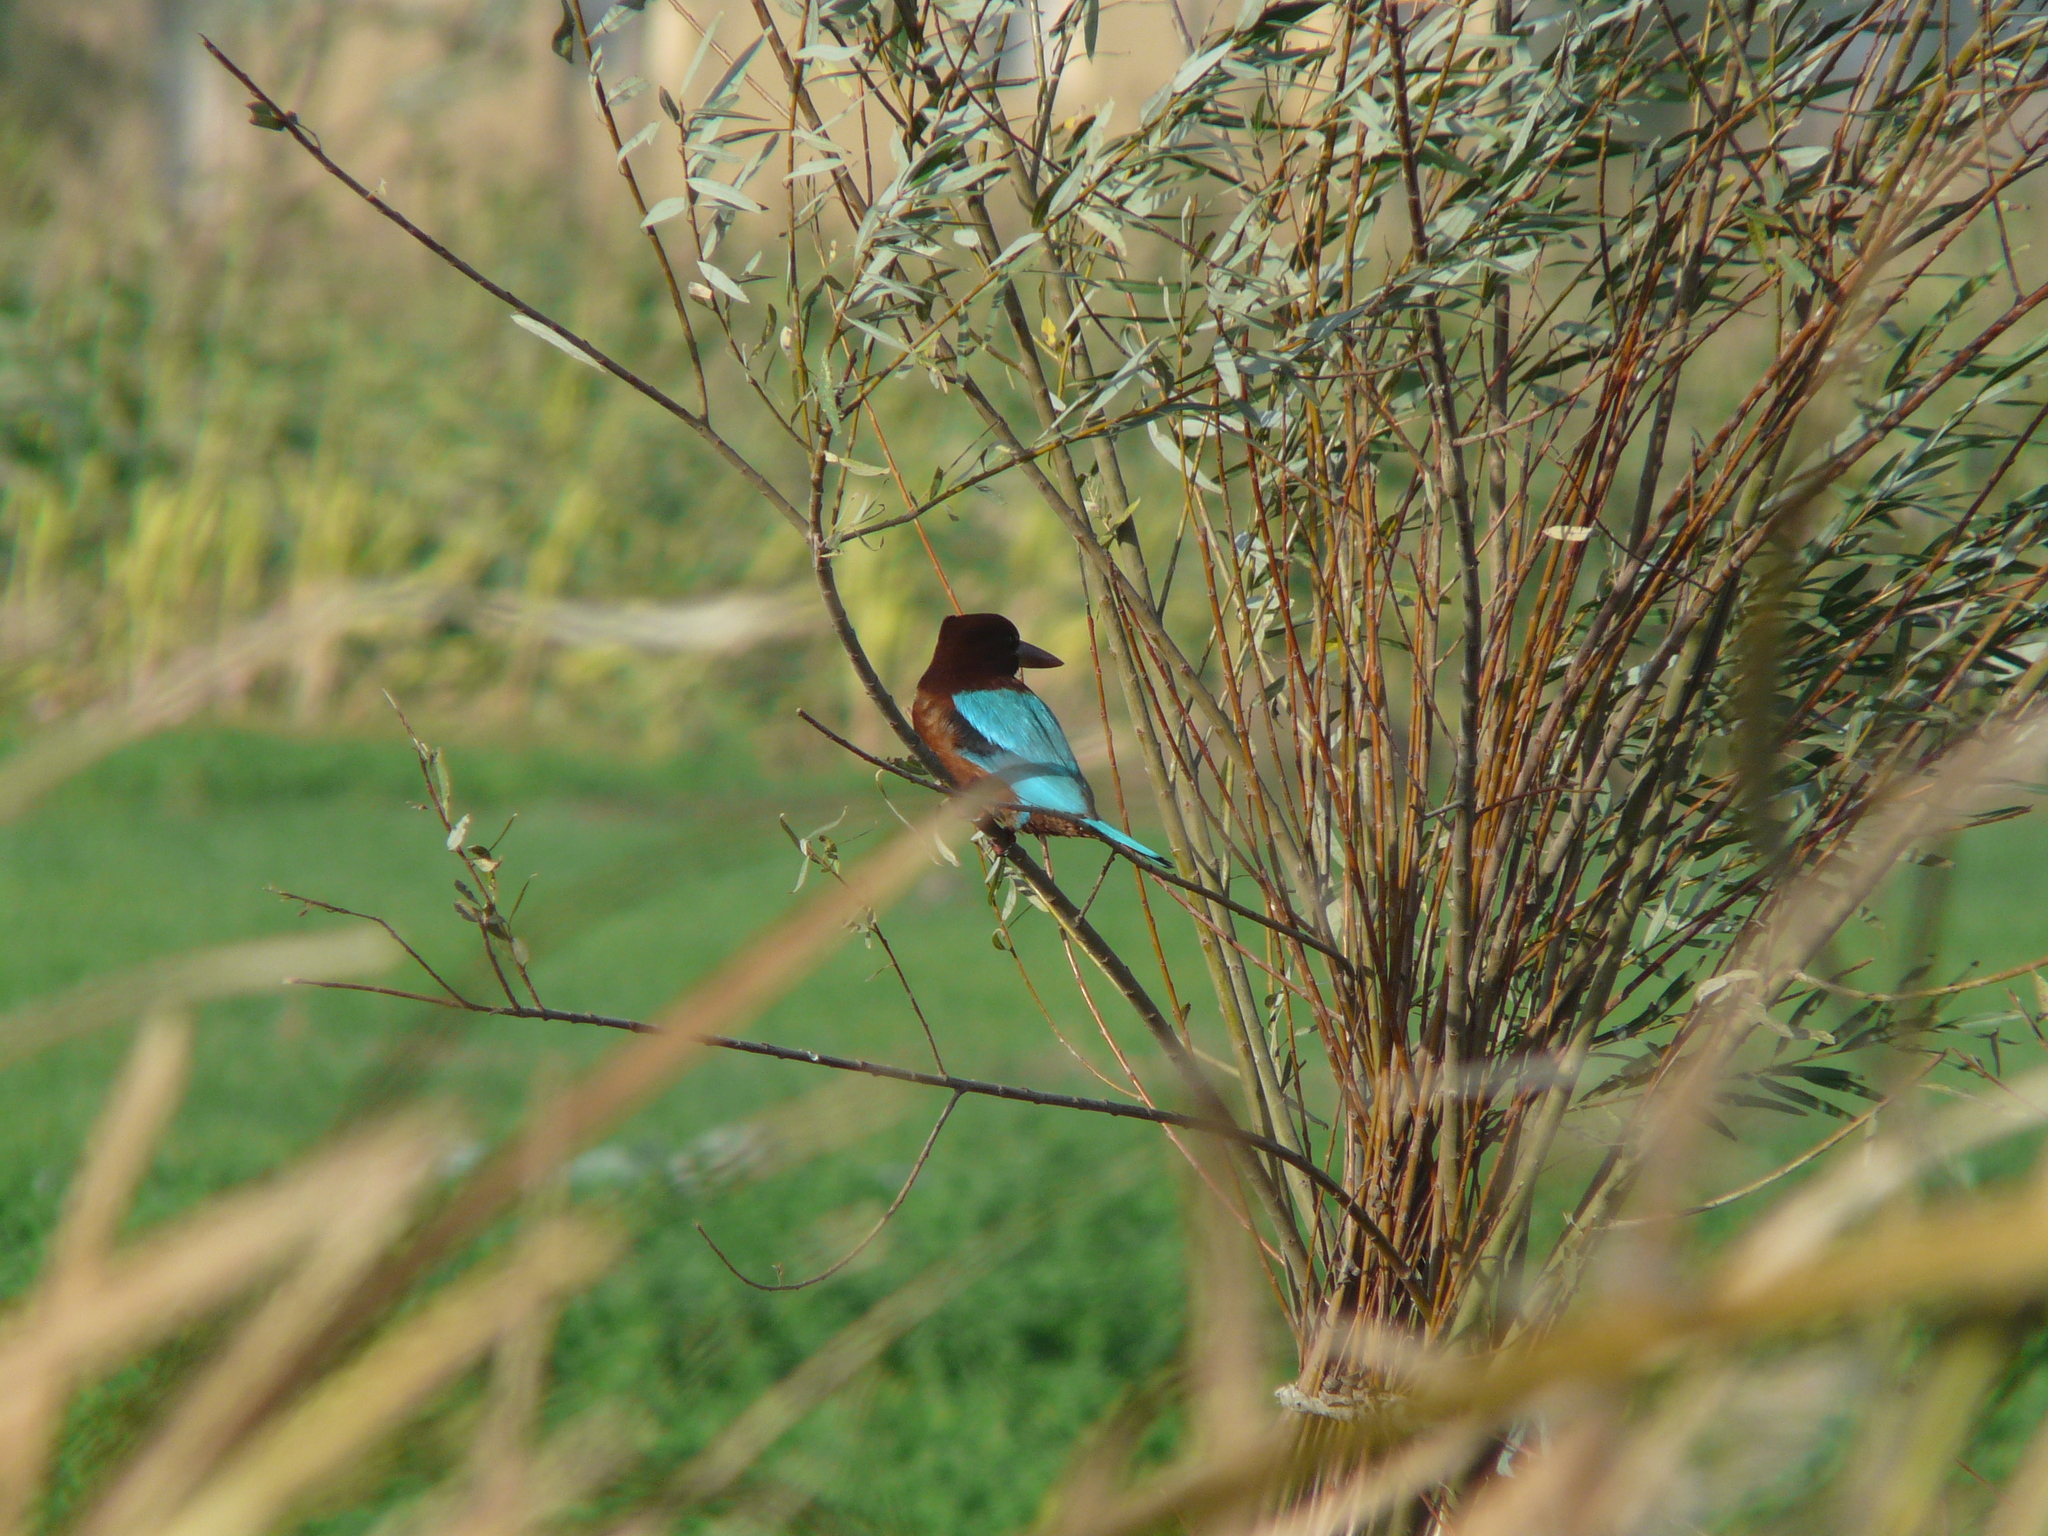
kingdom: Animalia
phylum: Chordata
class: Aves
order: Coraciiformes
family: Alcedinidae
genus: Halcyon
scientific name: Halcyon smyrnensis
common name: White-throated kingfisher
